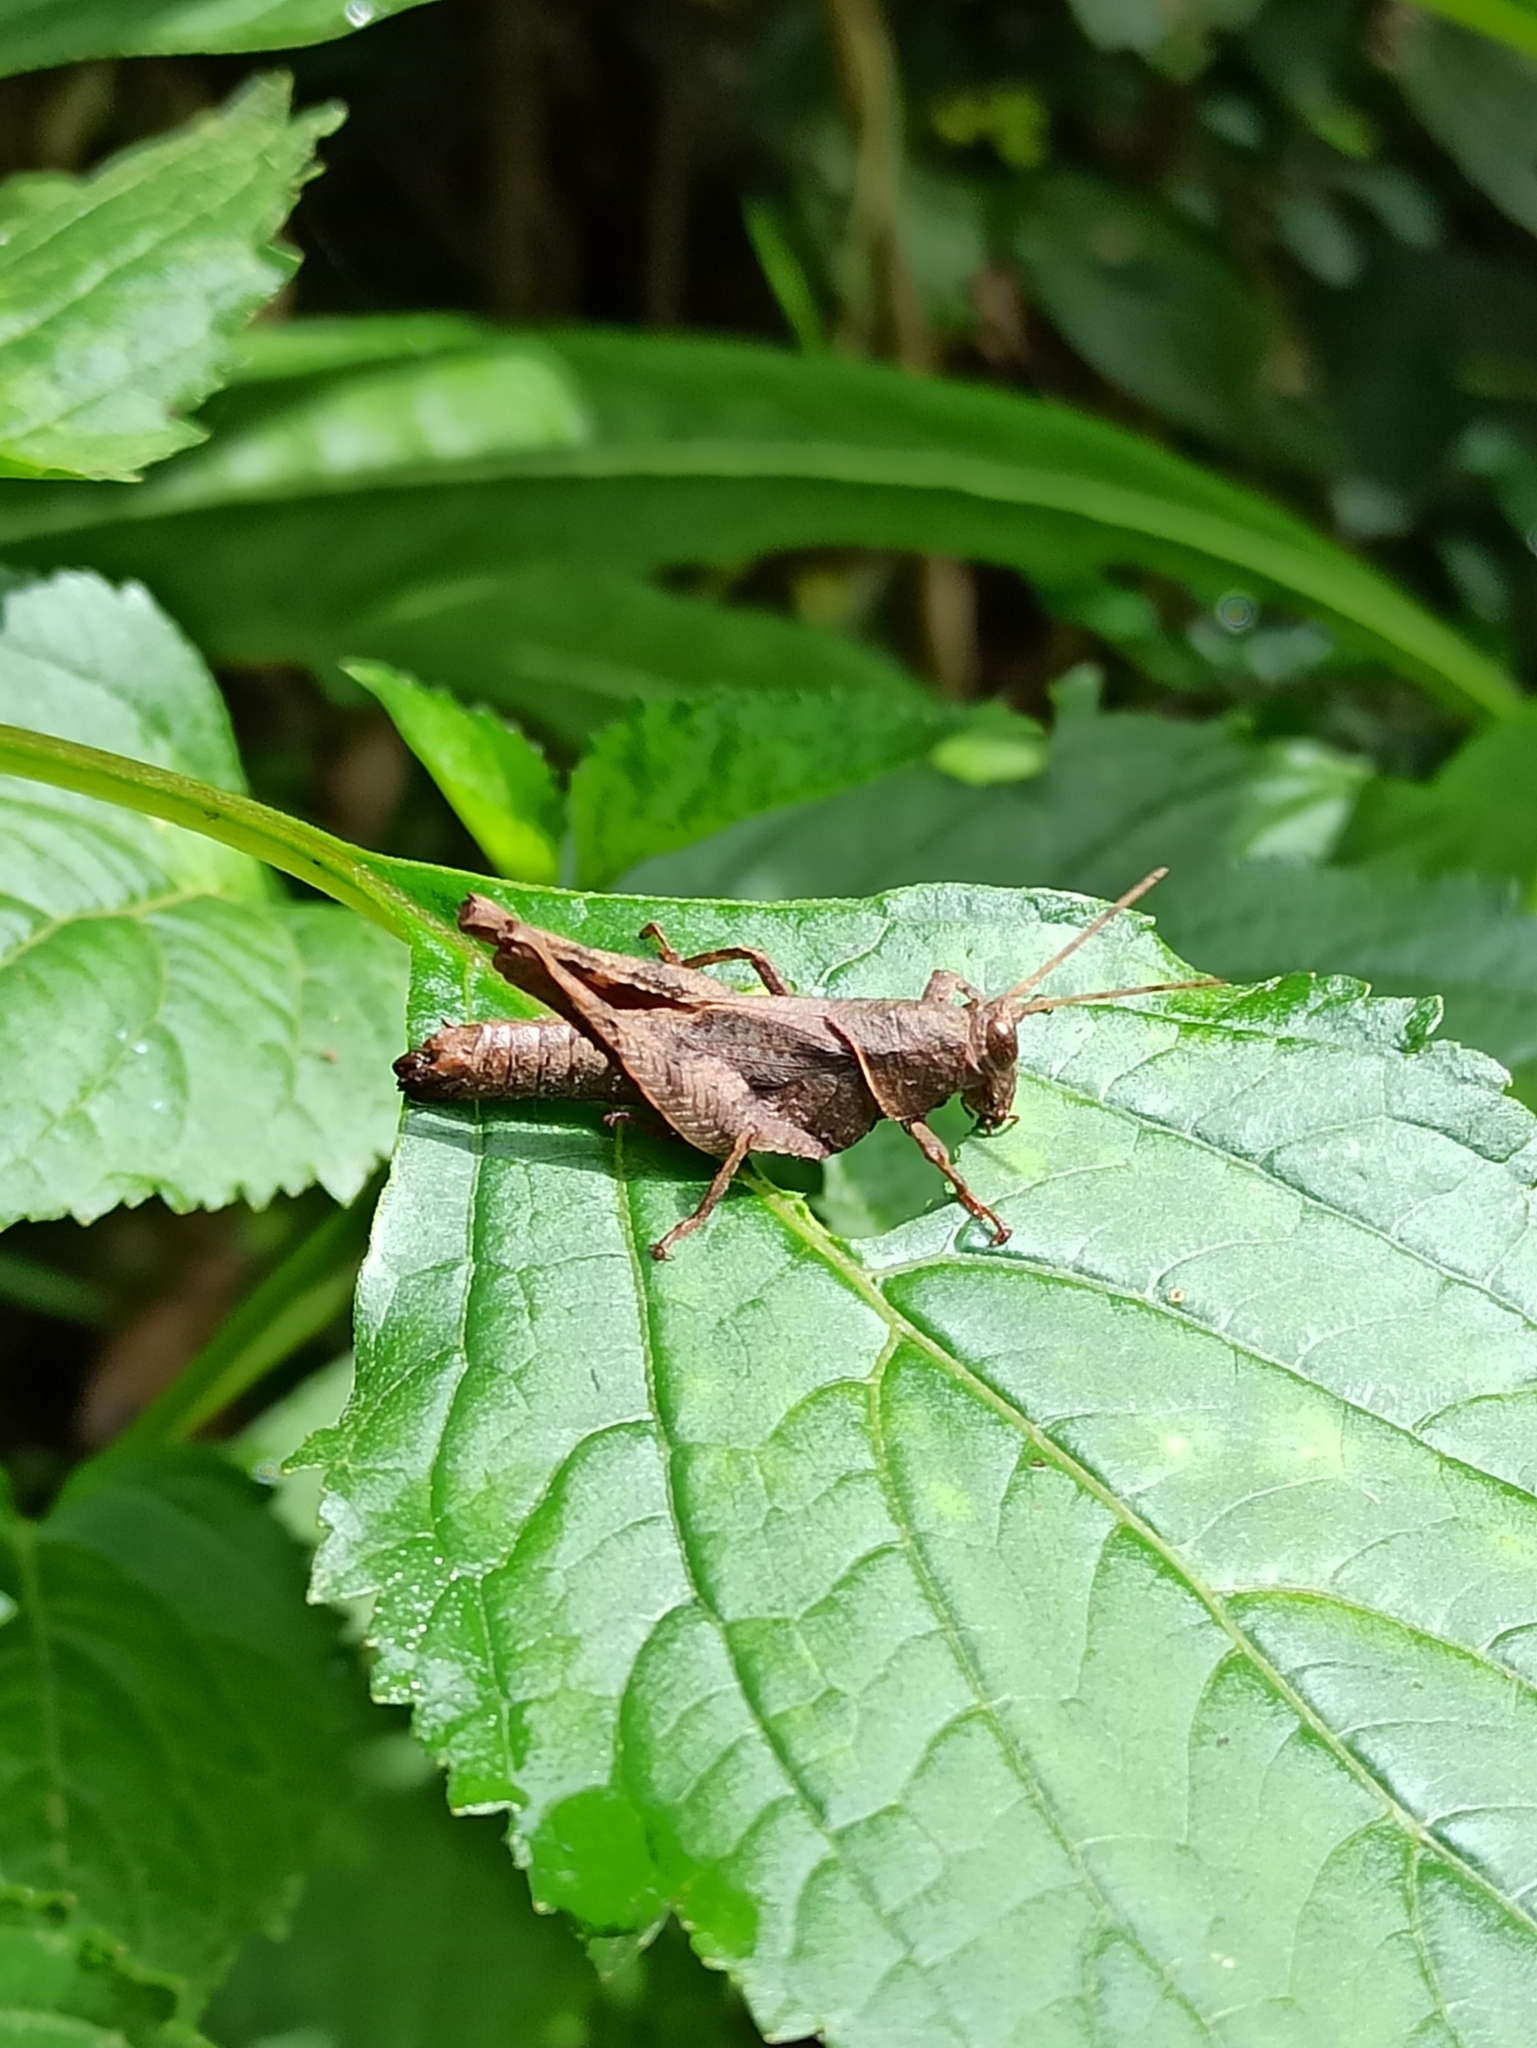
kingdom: Animalia
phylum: Arthropoda
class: Insecta
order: Orthoptera
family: Acrididae
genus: Coptacrella
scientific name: Coptacrella martini
